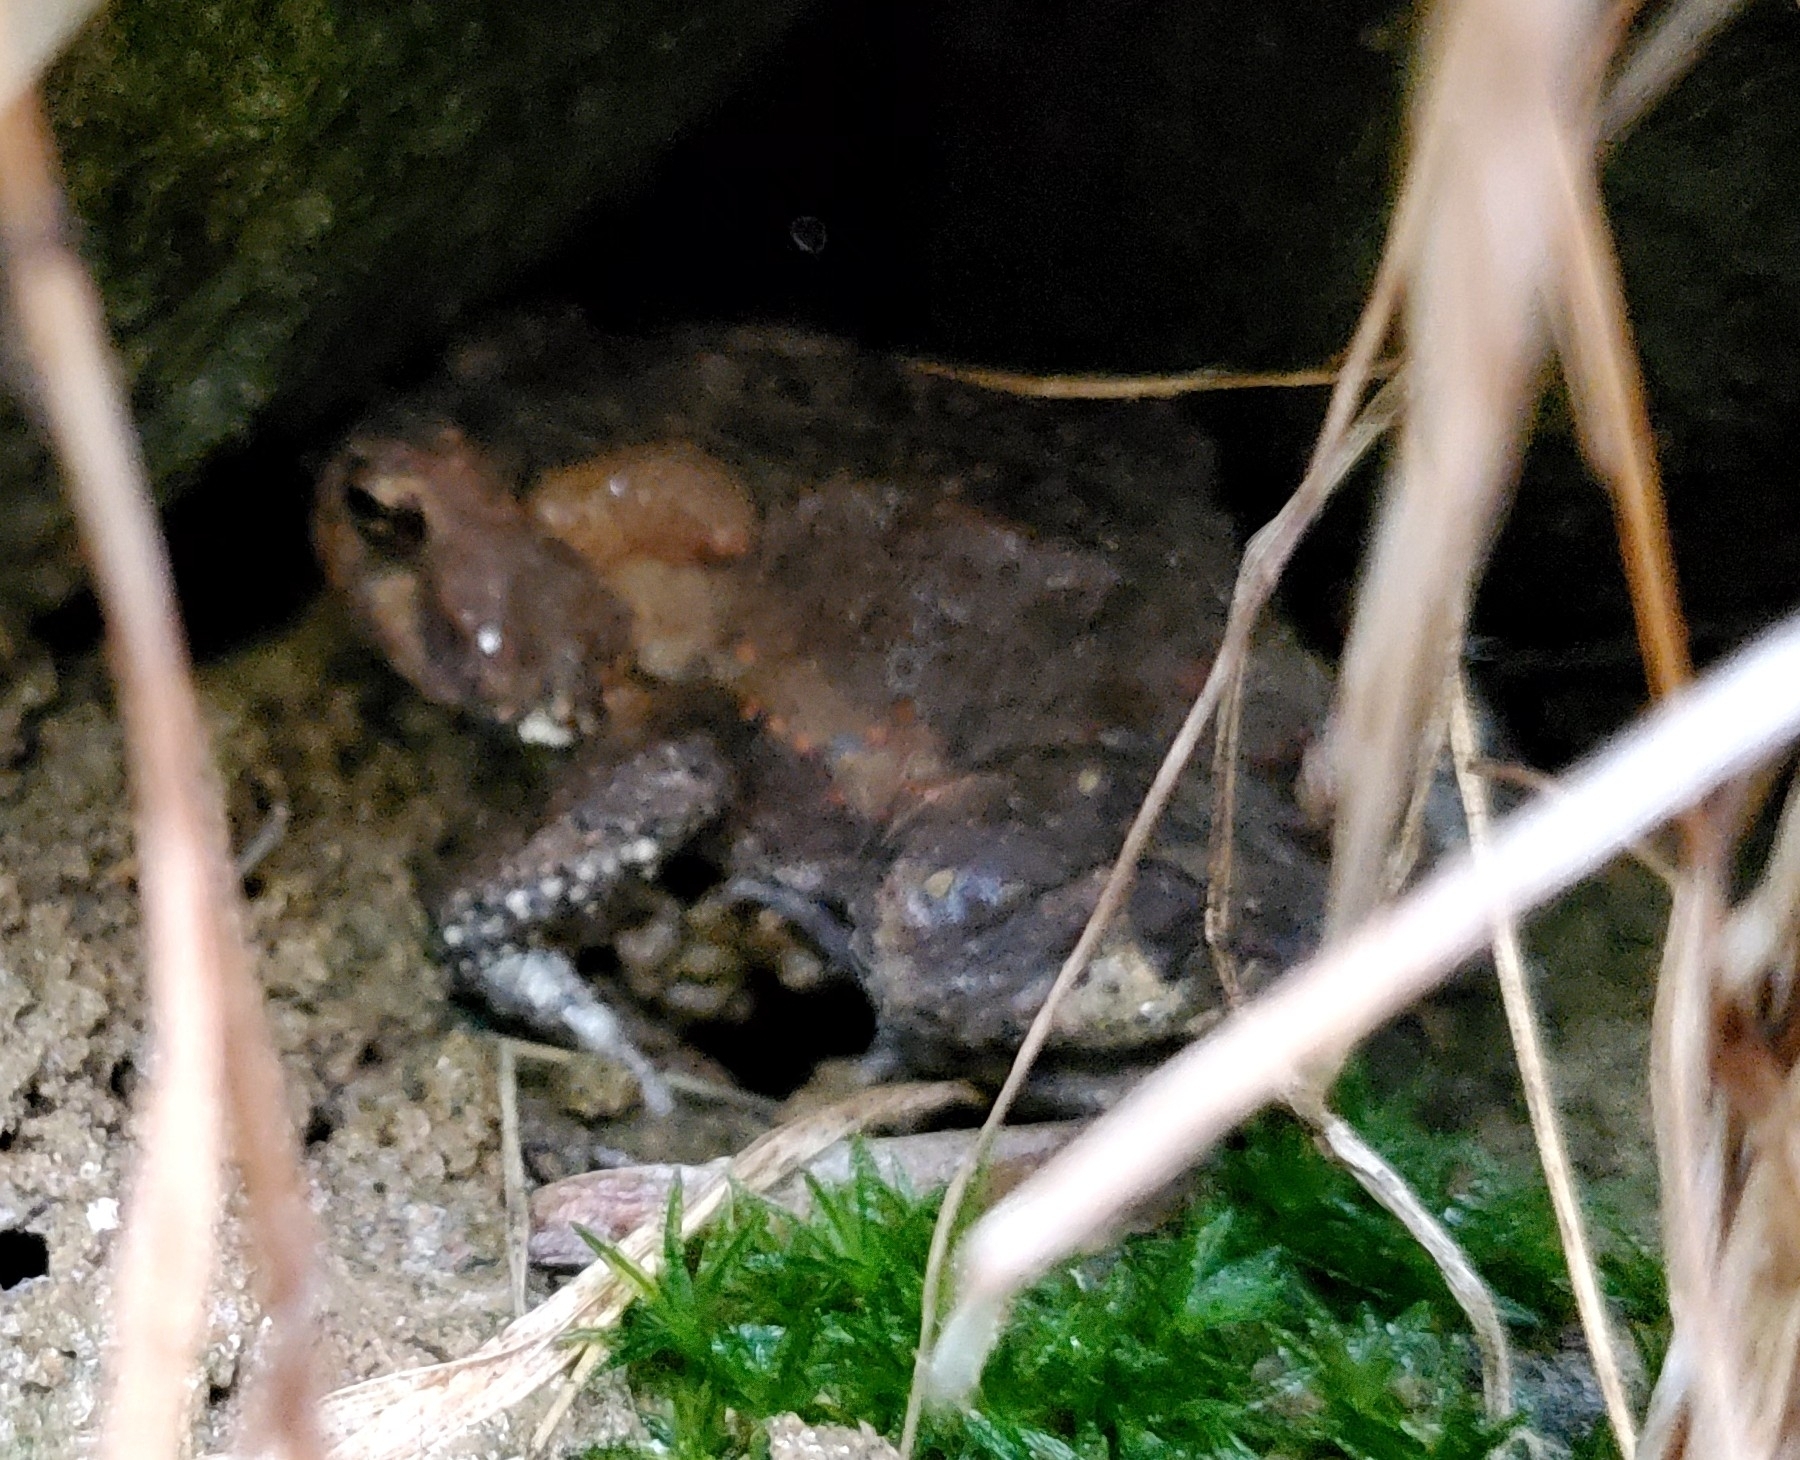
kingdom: Animalia
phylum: Chordata
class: Amphibia
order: Anura
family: Bufonidae
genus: Anaxyrus
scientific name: Anaxyrus americanus
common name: American toad
